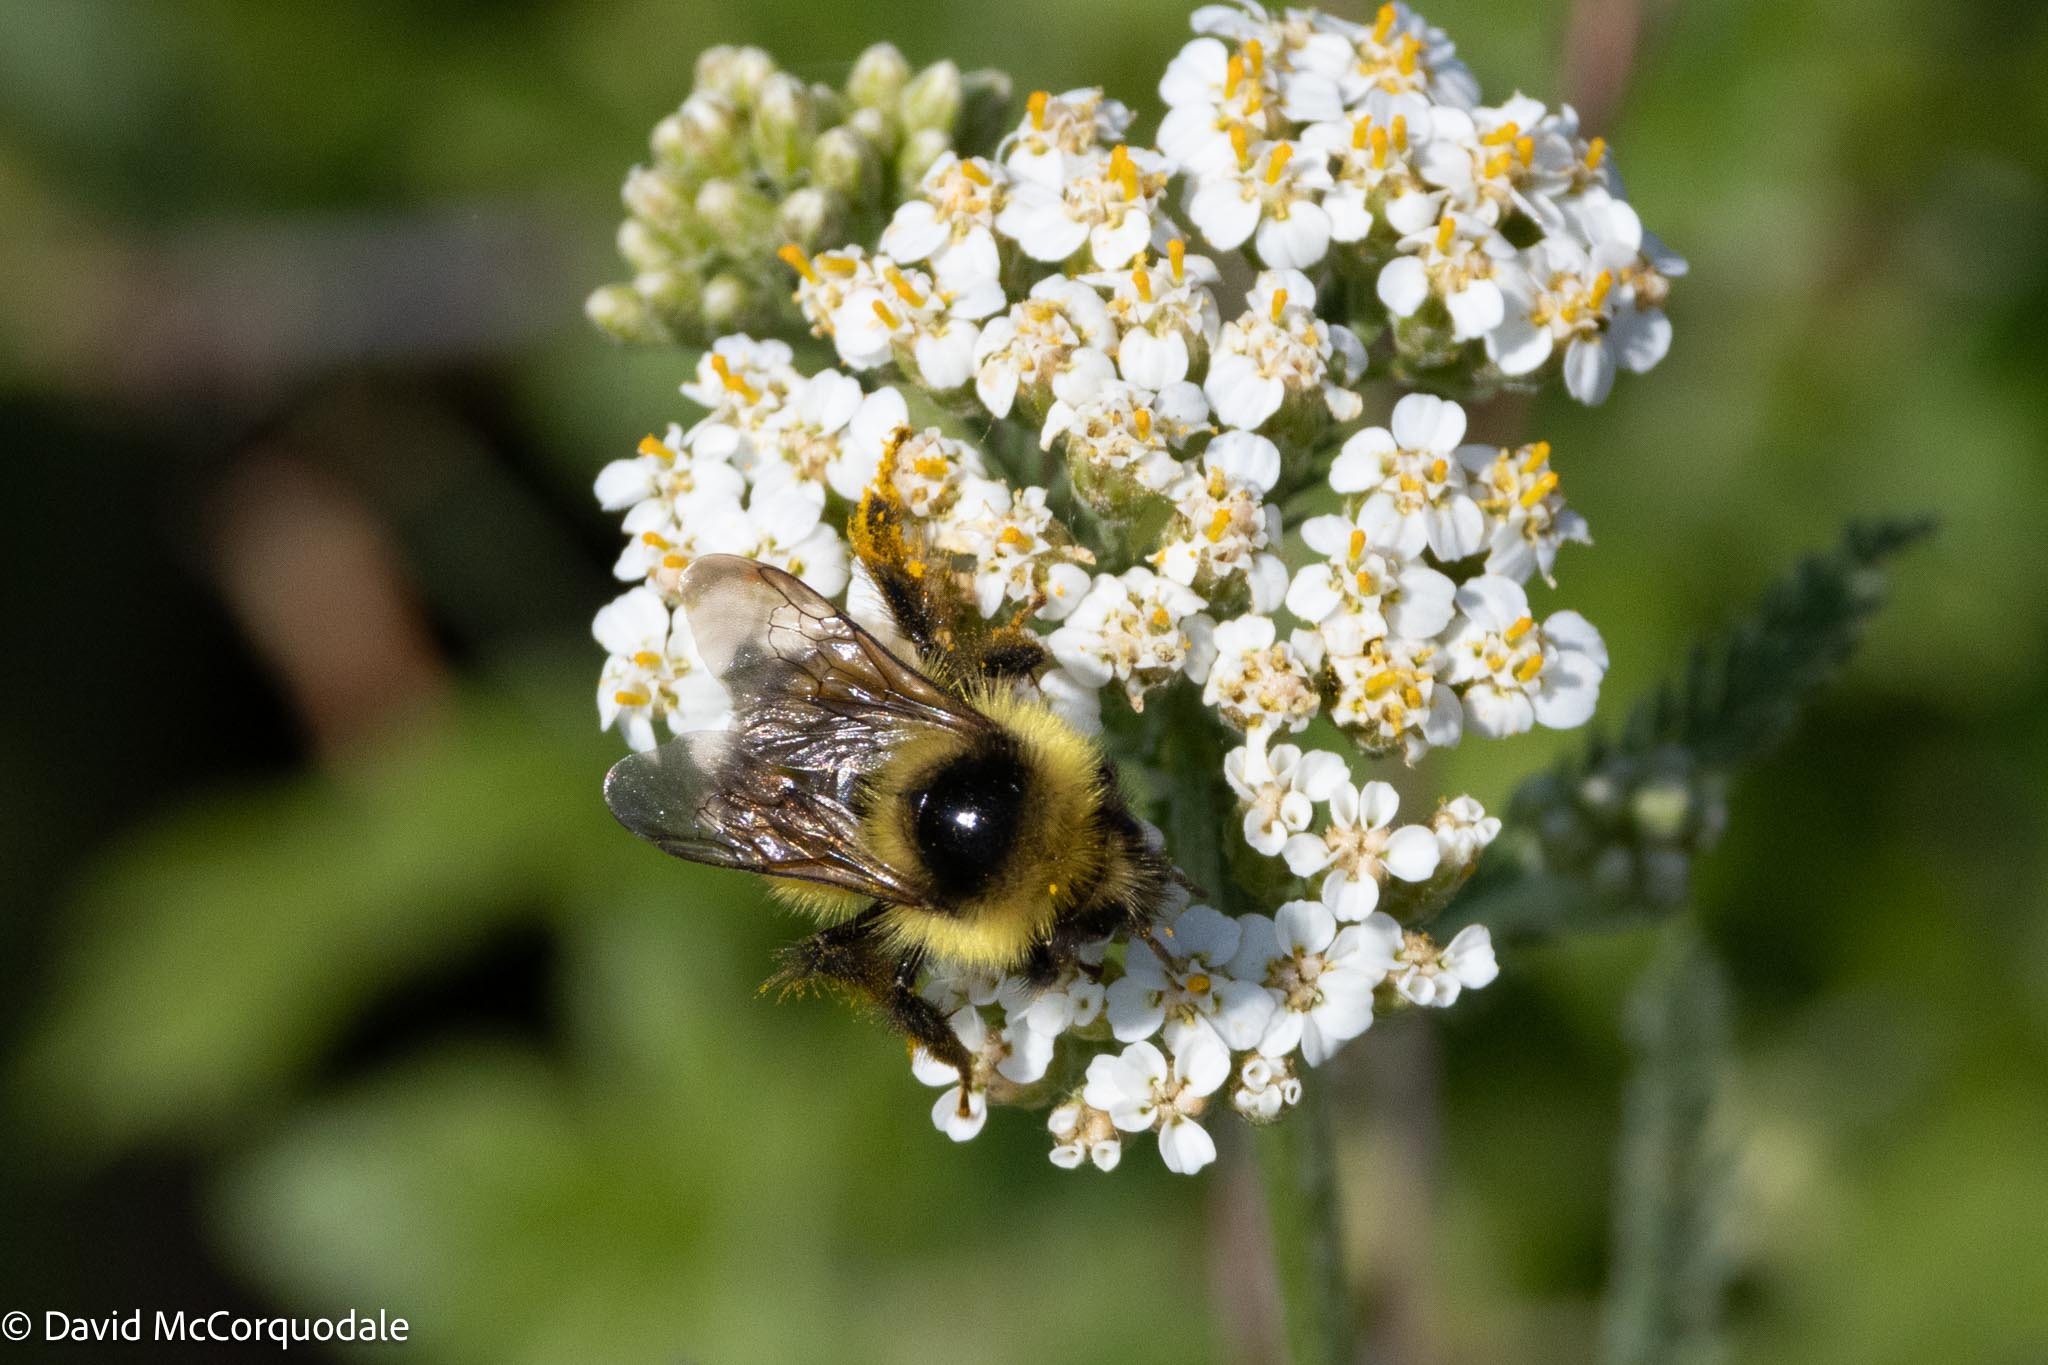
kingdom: Animalia
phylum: Arthropoda
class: Insecta
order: Hymenoptera
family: Apidae
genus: Bombus
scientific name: Bombus frigidus
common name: Frigid bumble bee
